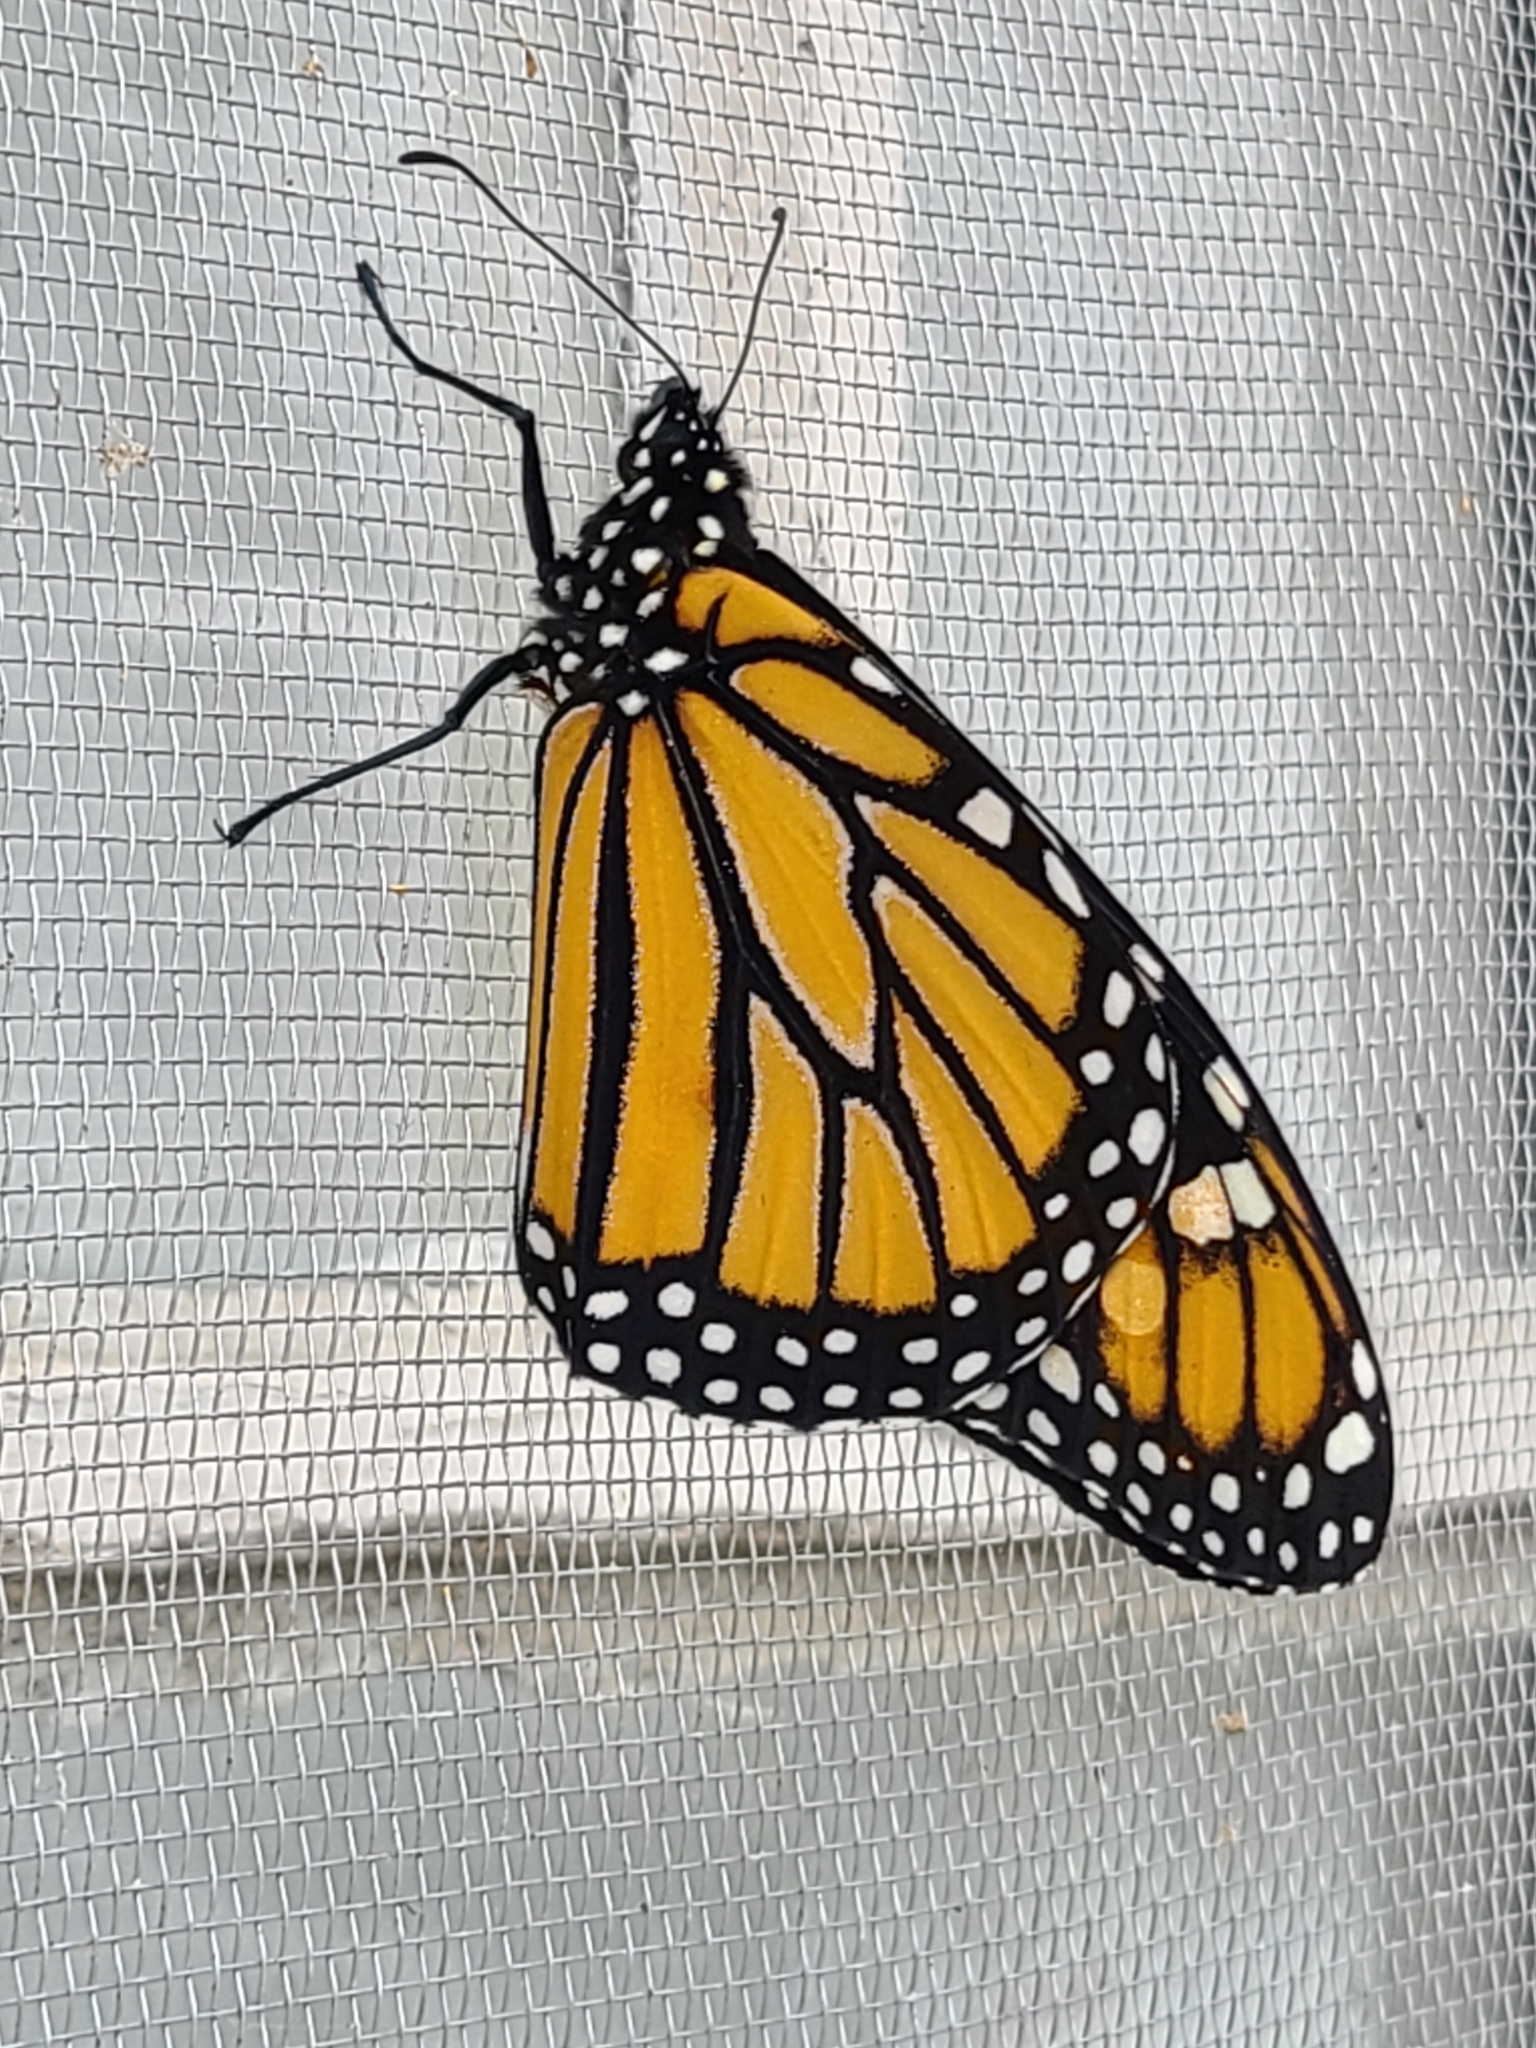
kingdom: Animalia
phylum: Arthropoda
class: Insecta
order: Lepidoptera
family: Nymphalidae
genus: Danaus
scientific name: Danaus plexippus
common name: Monarch
